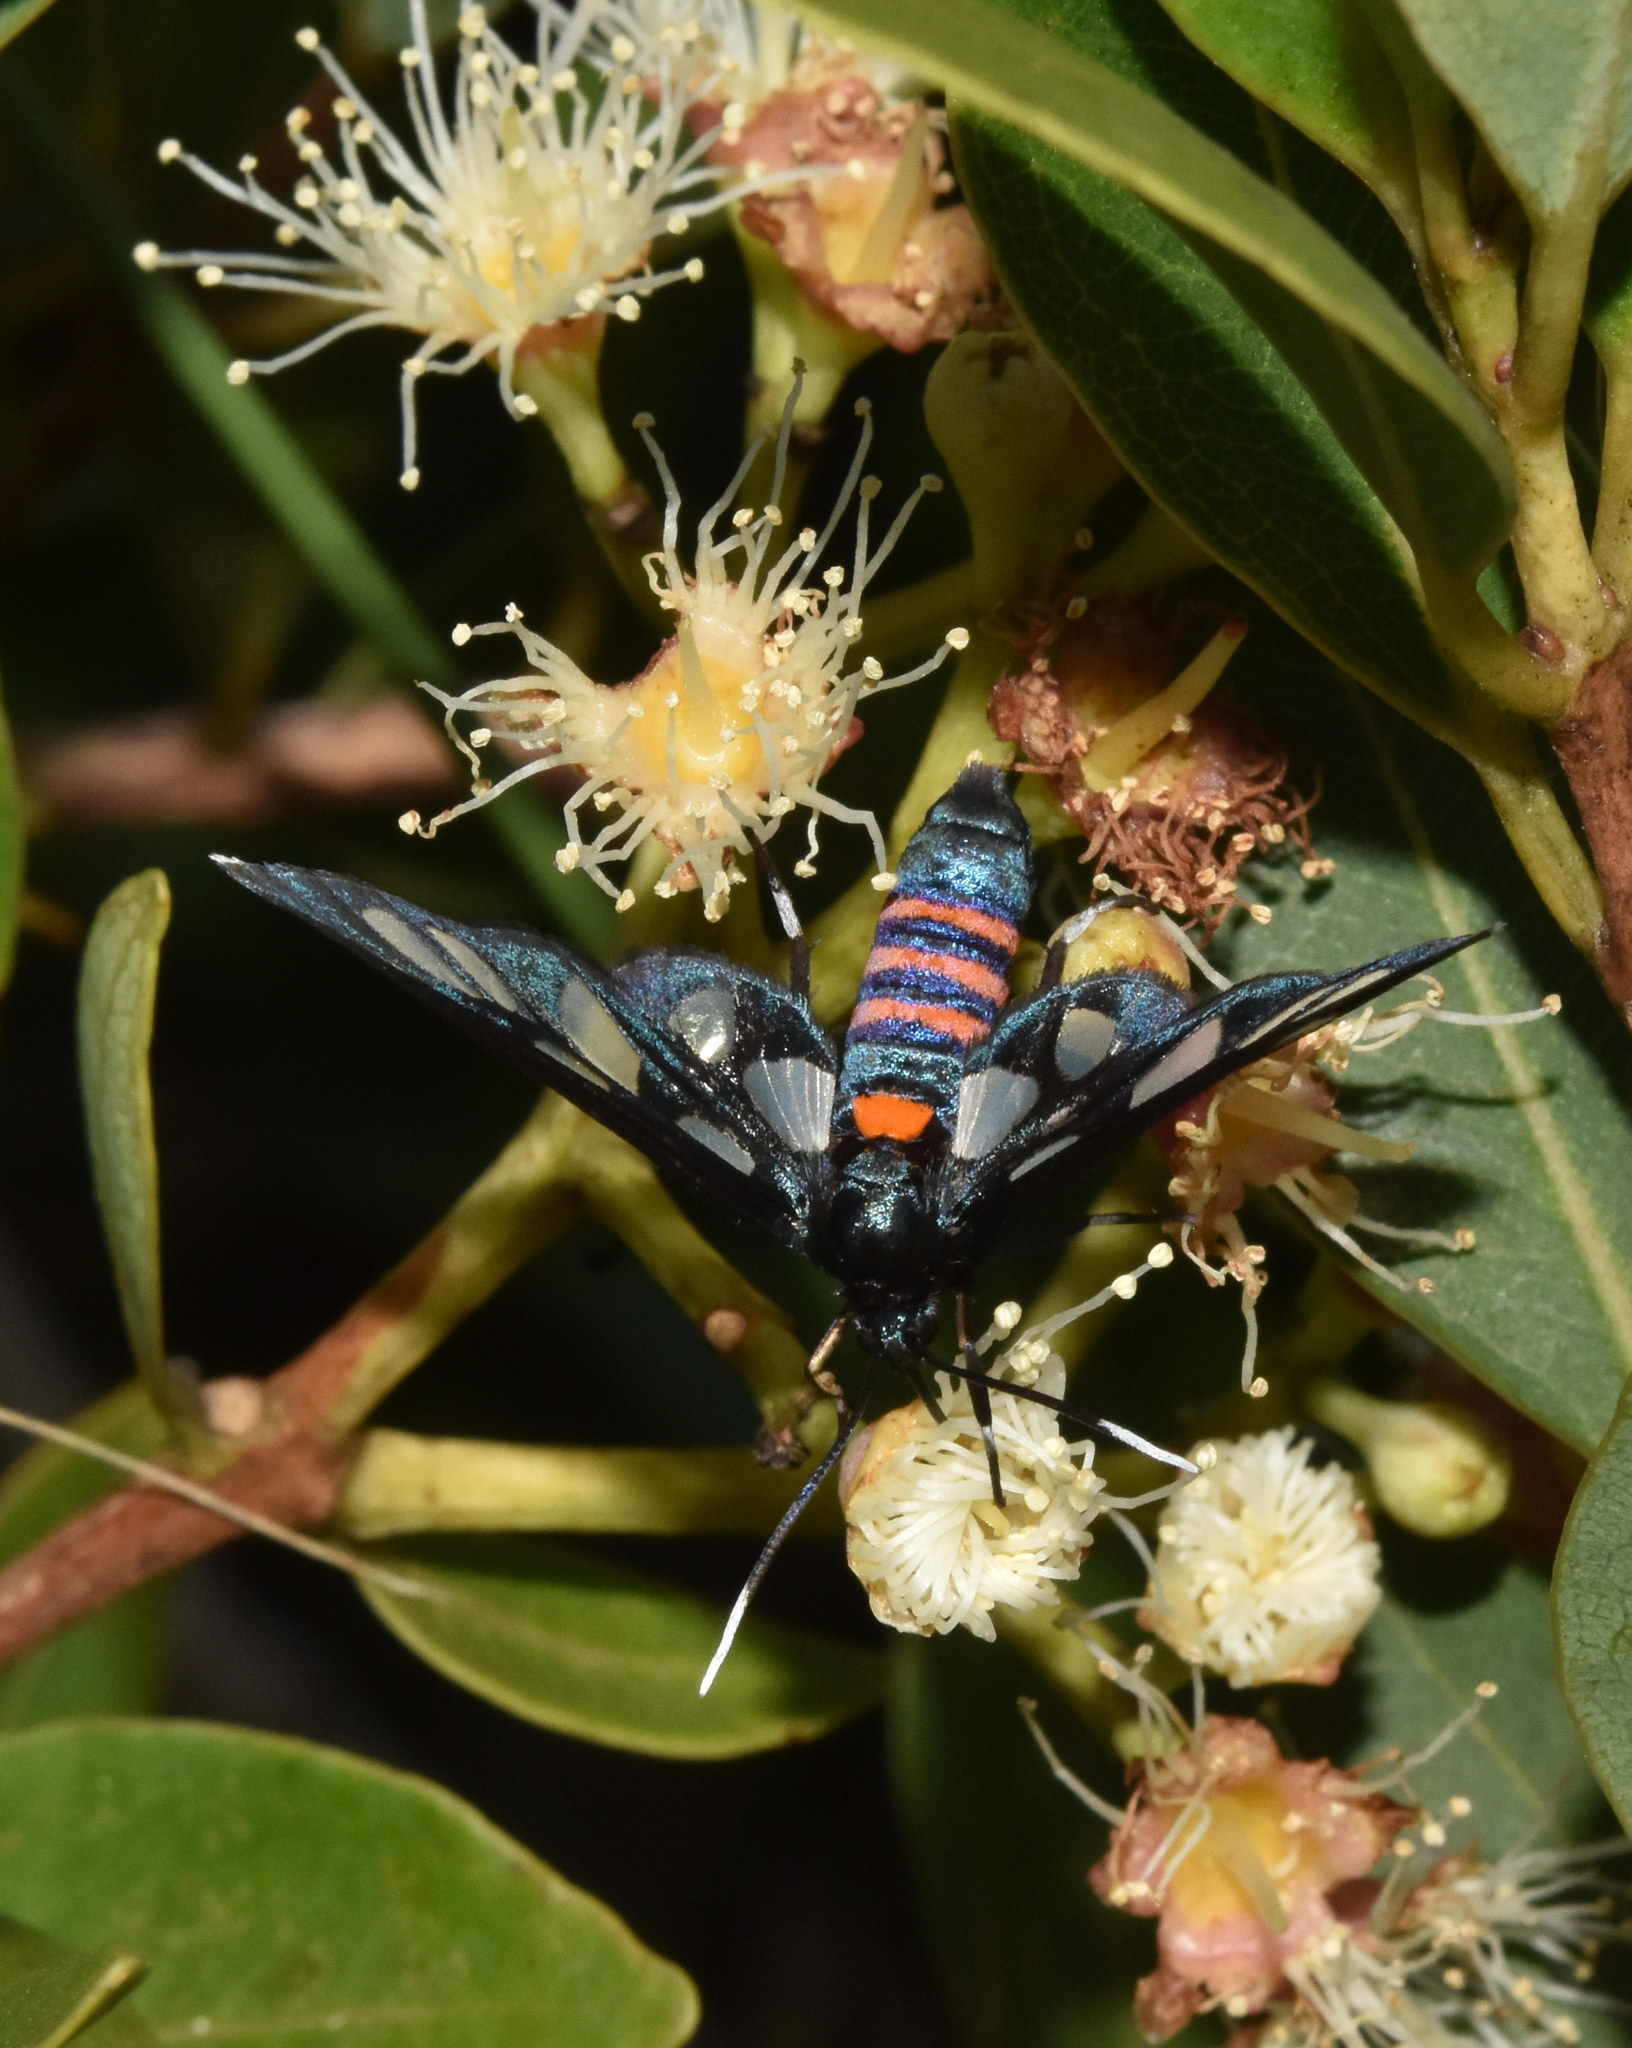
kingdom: Animalia
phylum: Arthropoda
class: Insecta
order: Lepidoptera
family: Erebidae
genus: Amata
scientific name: Amata schellhorni
